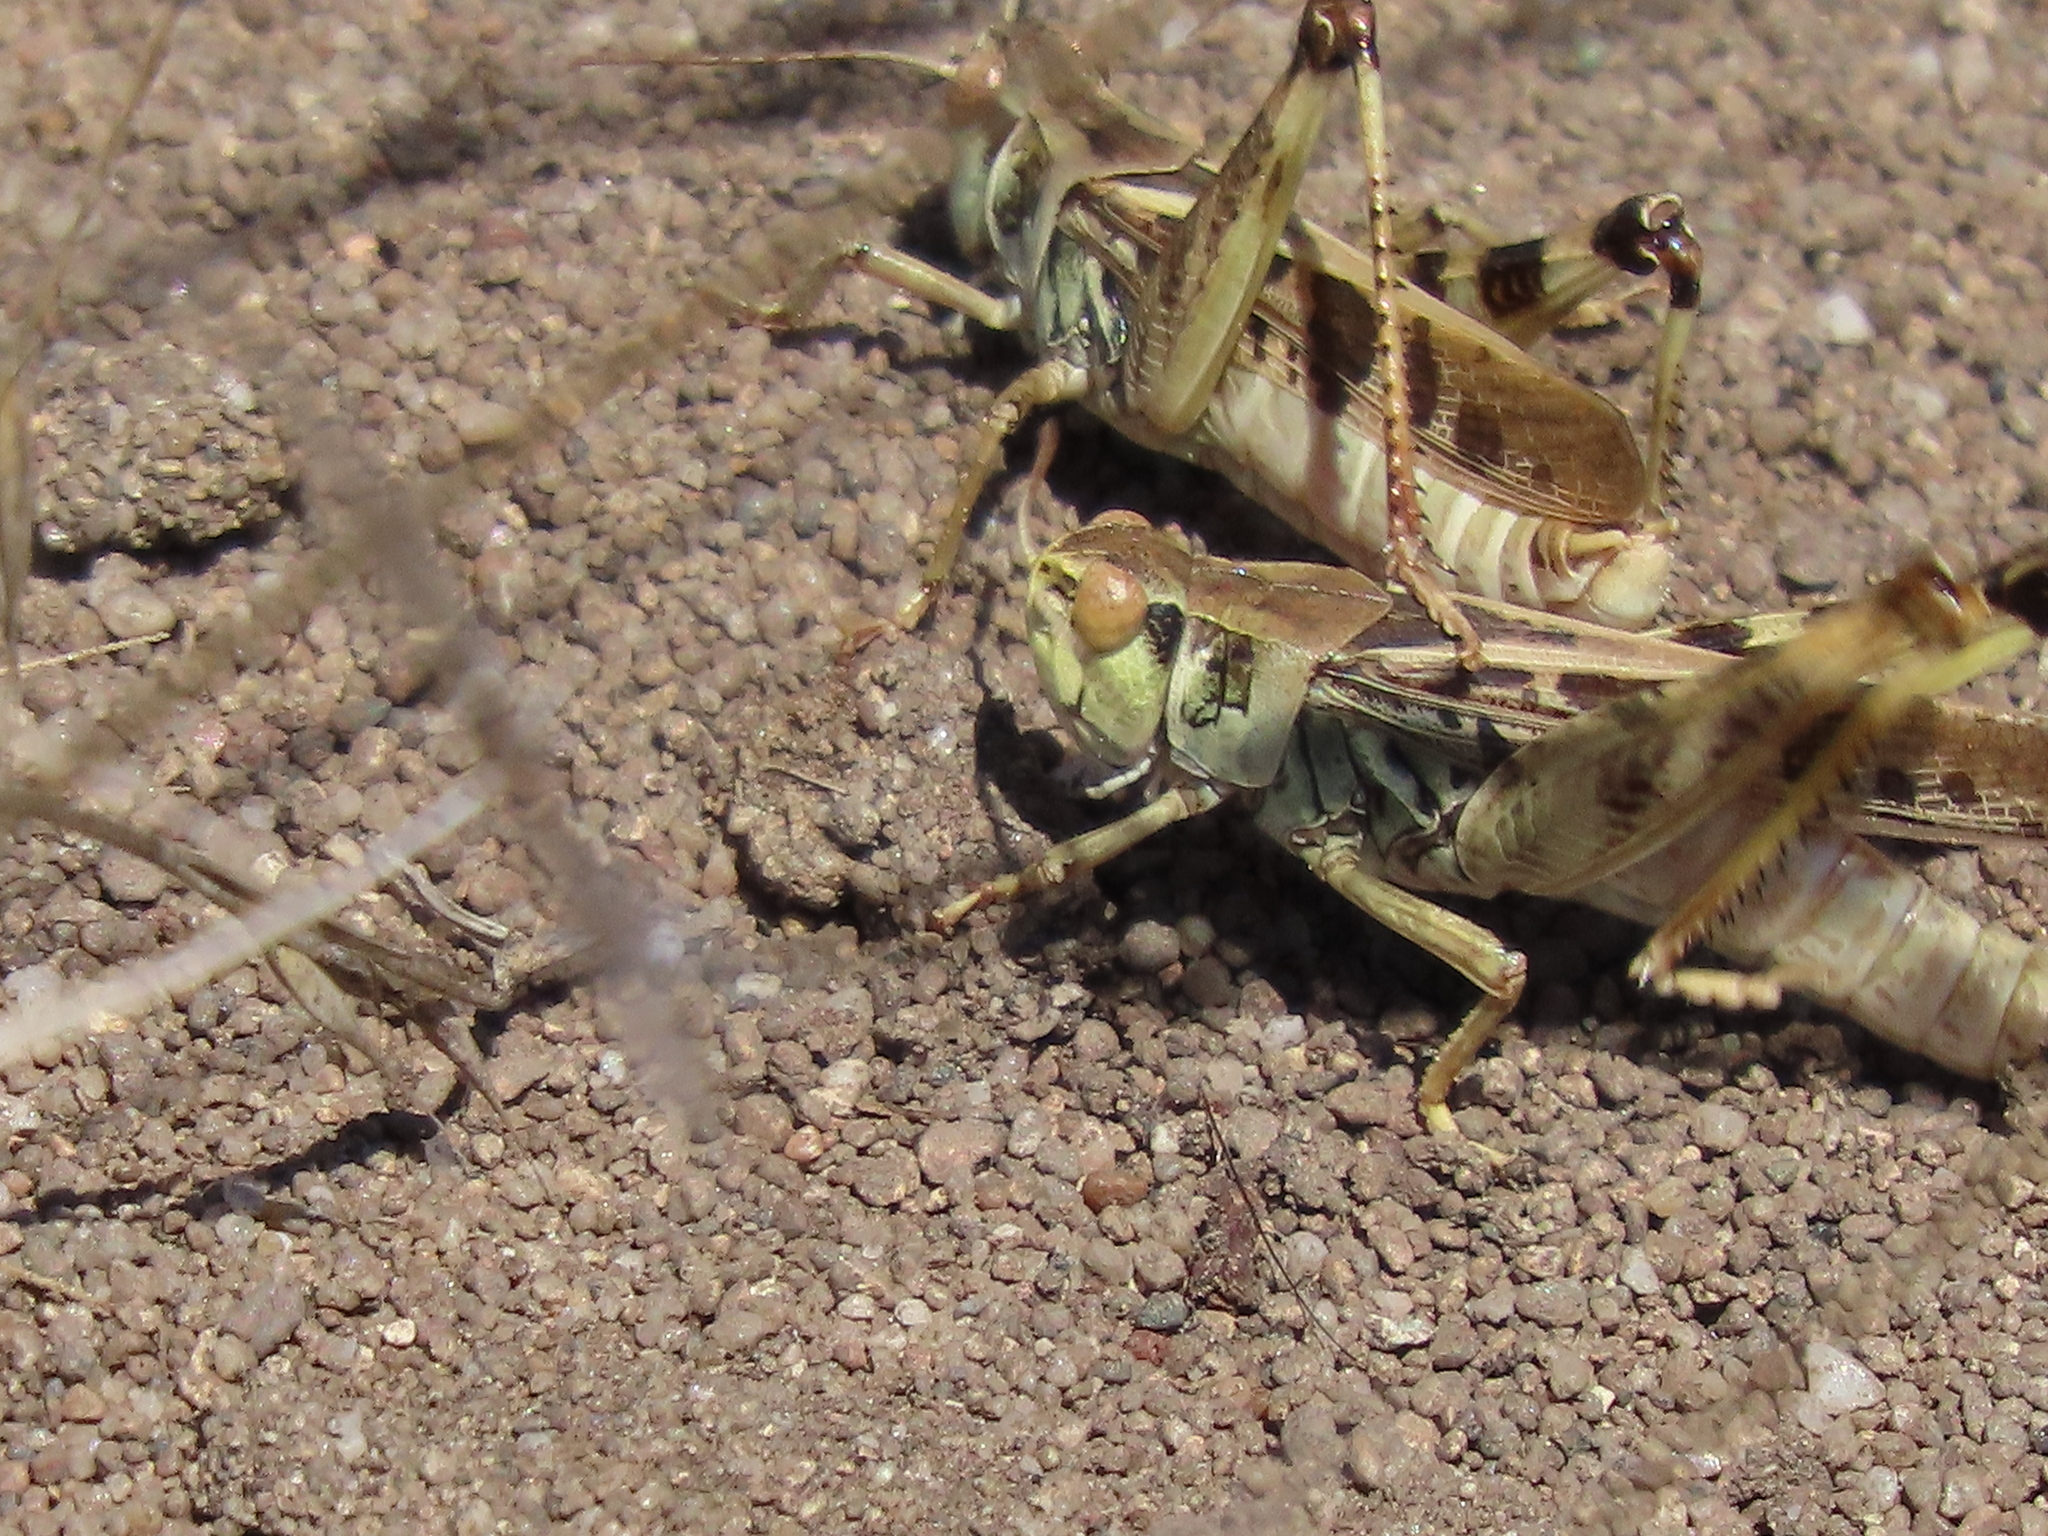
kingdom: Animalia
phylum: Arthropoda
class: Insecta
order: Orthoptera
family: Acrididae
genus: Camnula
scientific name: Camnula pellucida
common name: Clear-winged grasshopper
